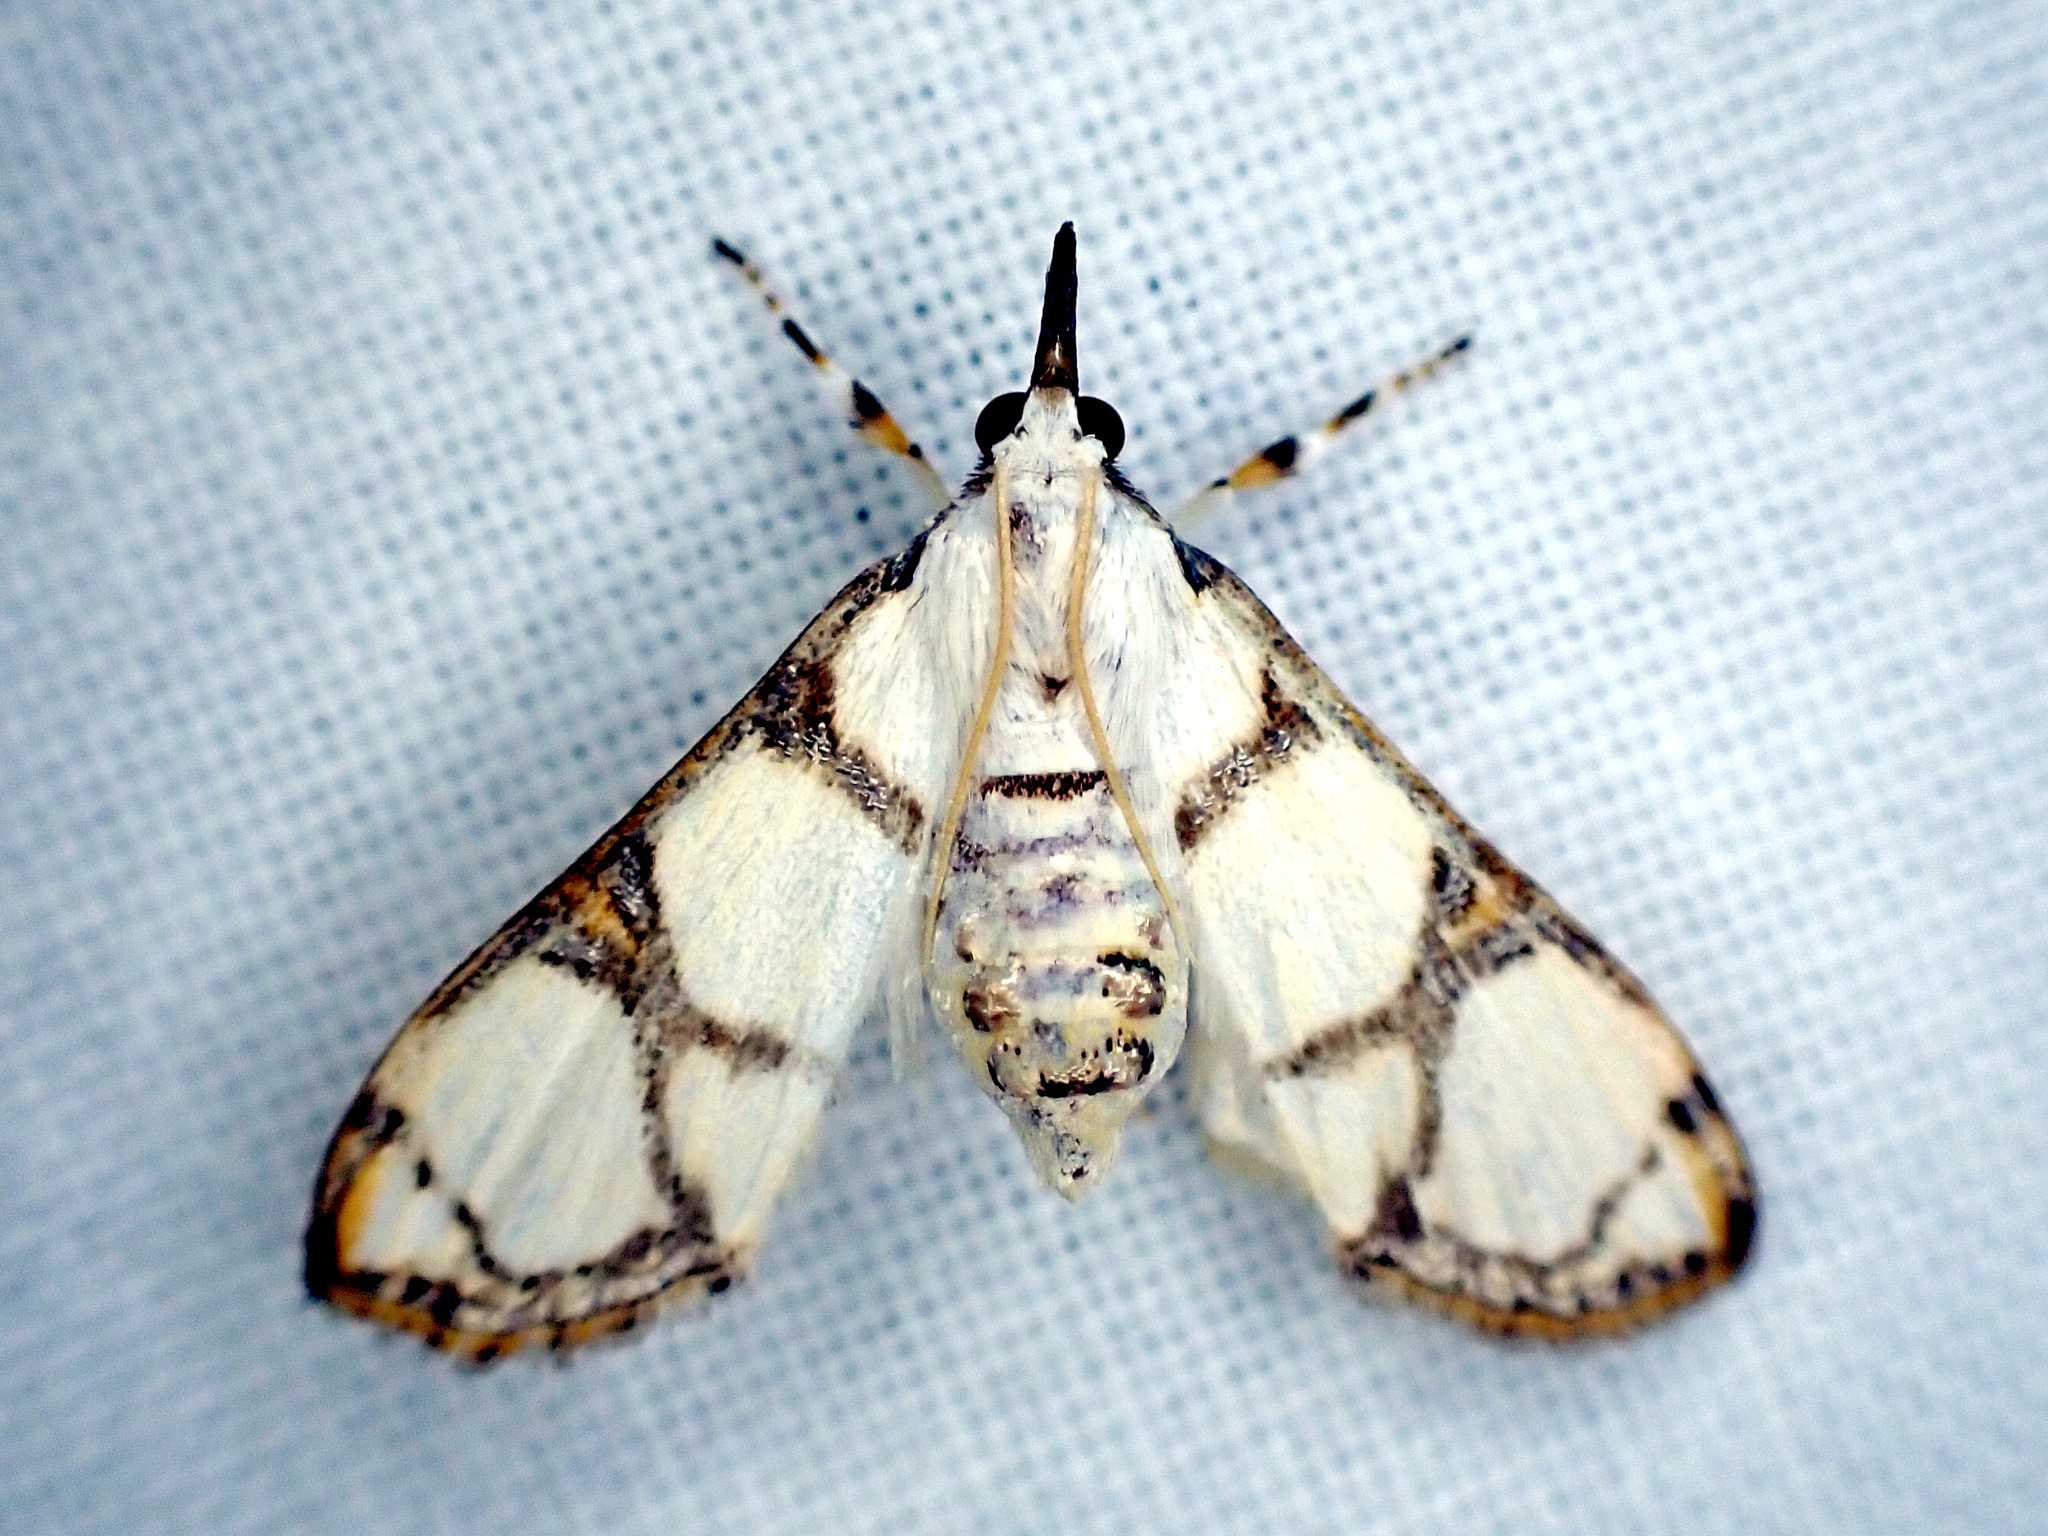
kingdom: Animalia
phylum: Arthropoda
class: Insecta
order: Lepidoptera
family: Crambidae
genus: Cirrhochrista
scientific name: Cirrhochrista caconalis
